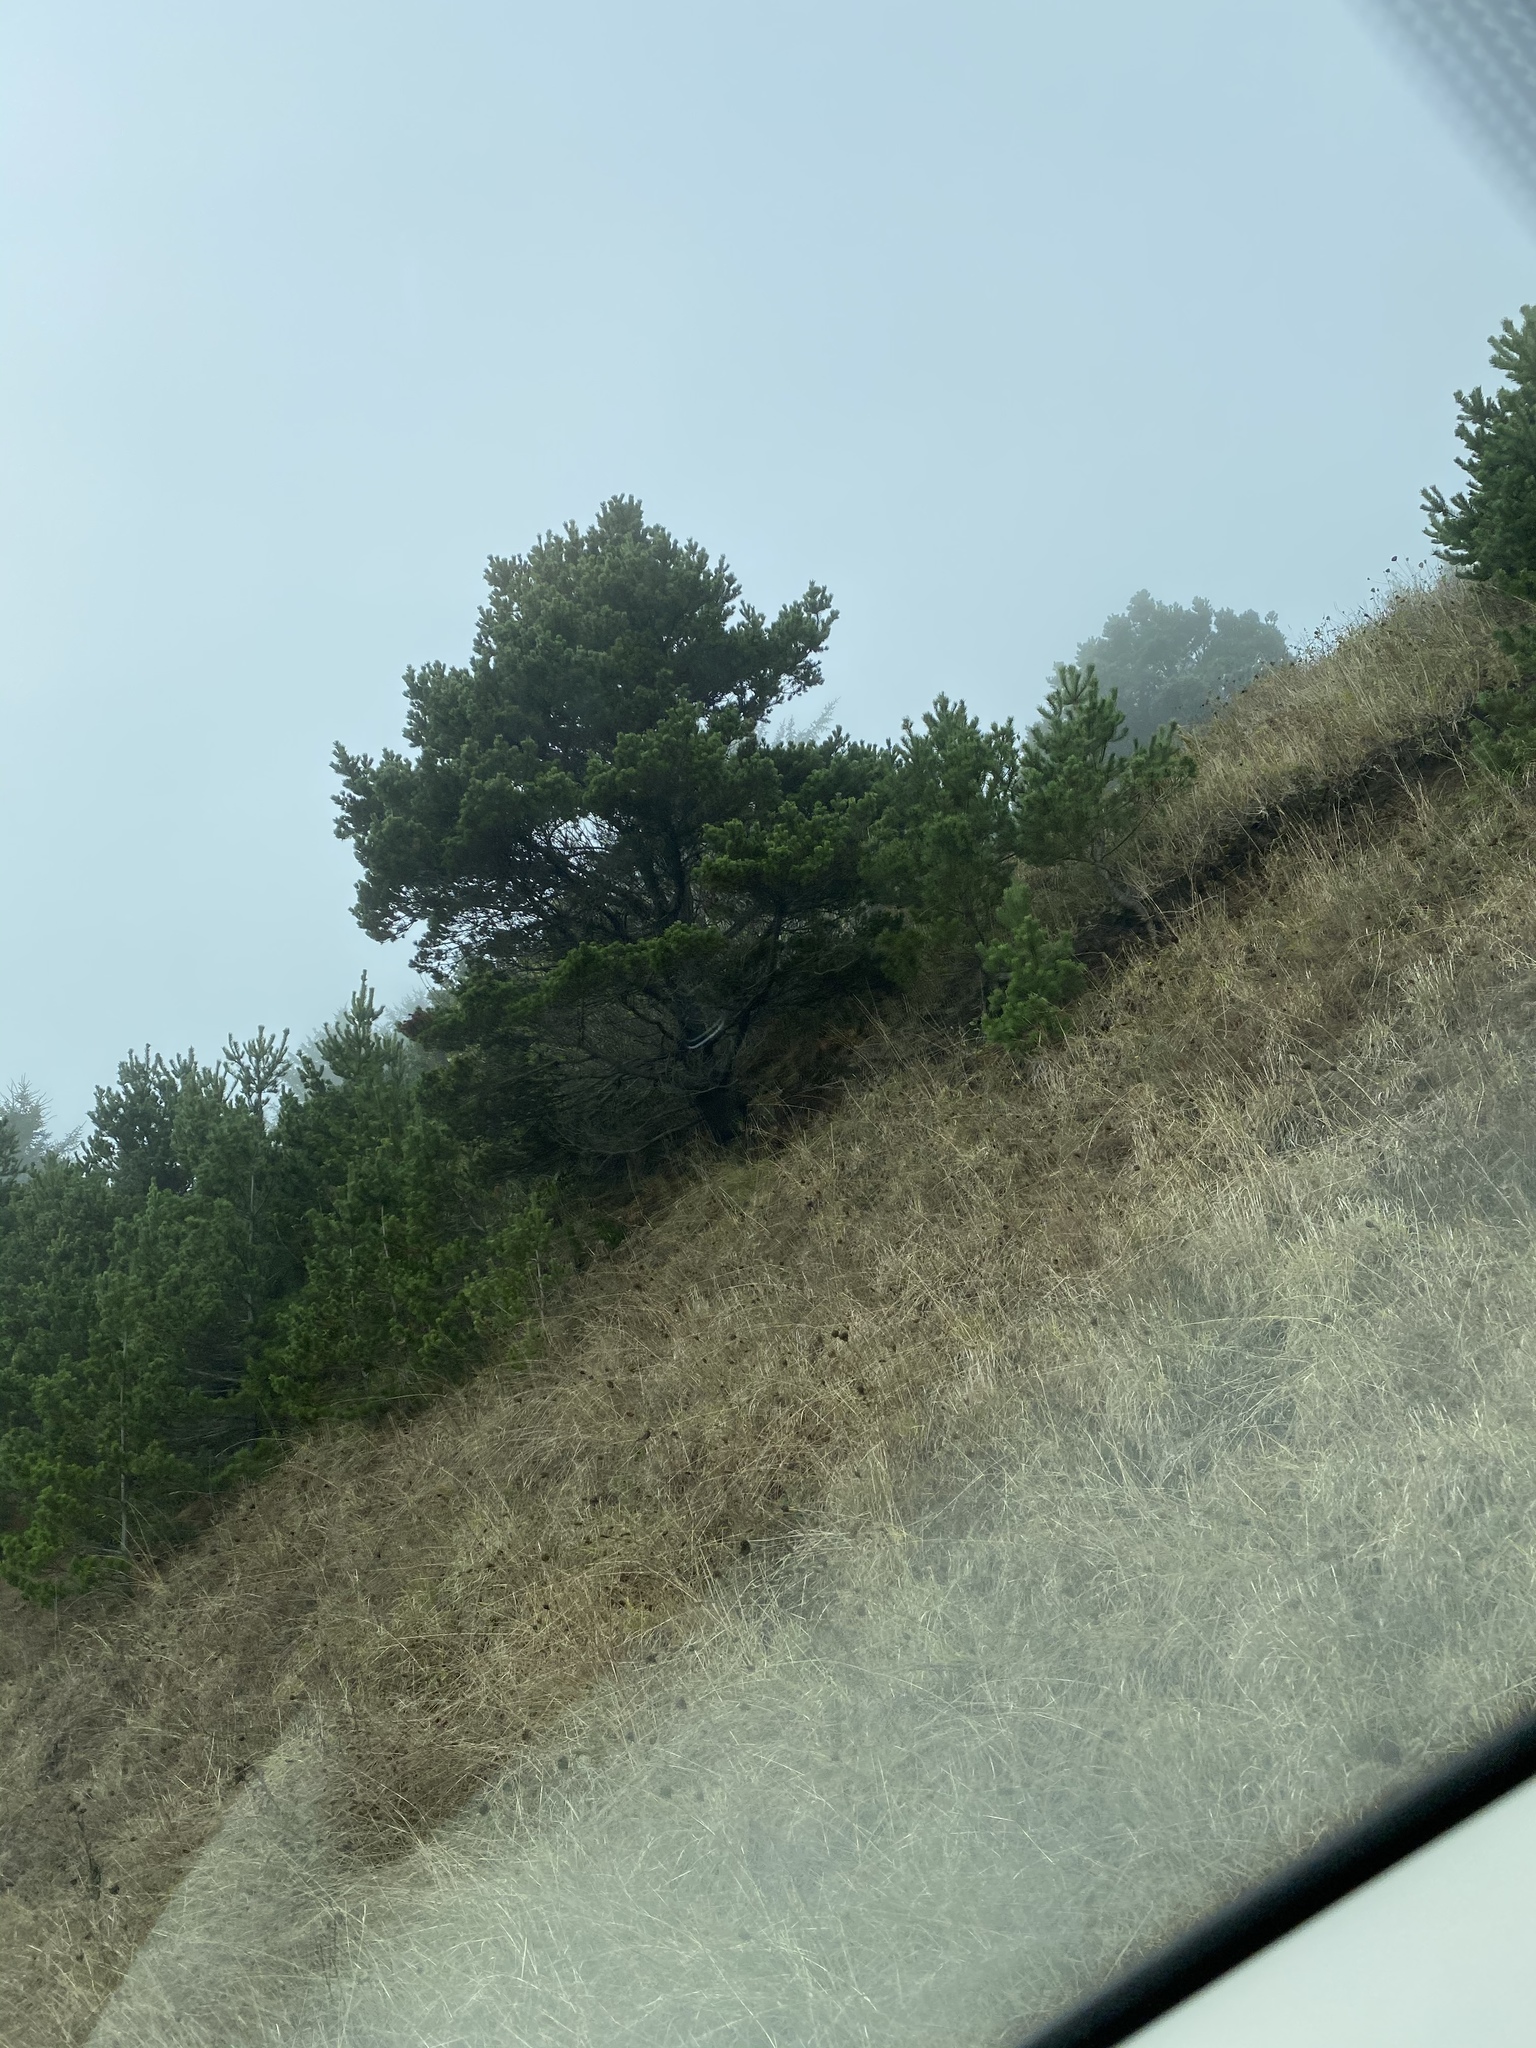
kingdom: Plantae
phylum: Tracheophyta
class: Pinopsida
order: Pinales
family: Pinaceae
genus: Pinus
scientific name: Pinus contorta
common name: Lodgepole pine
